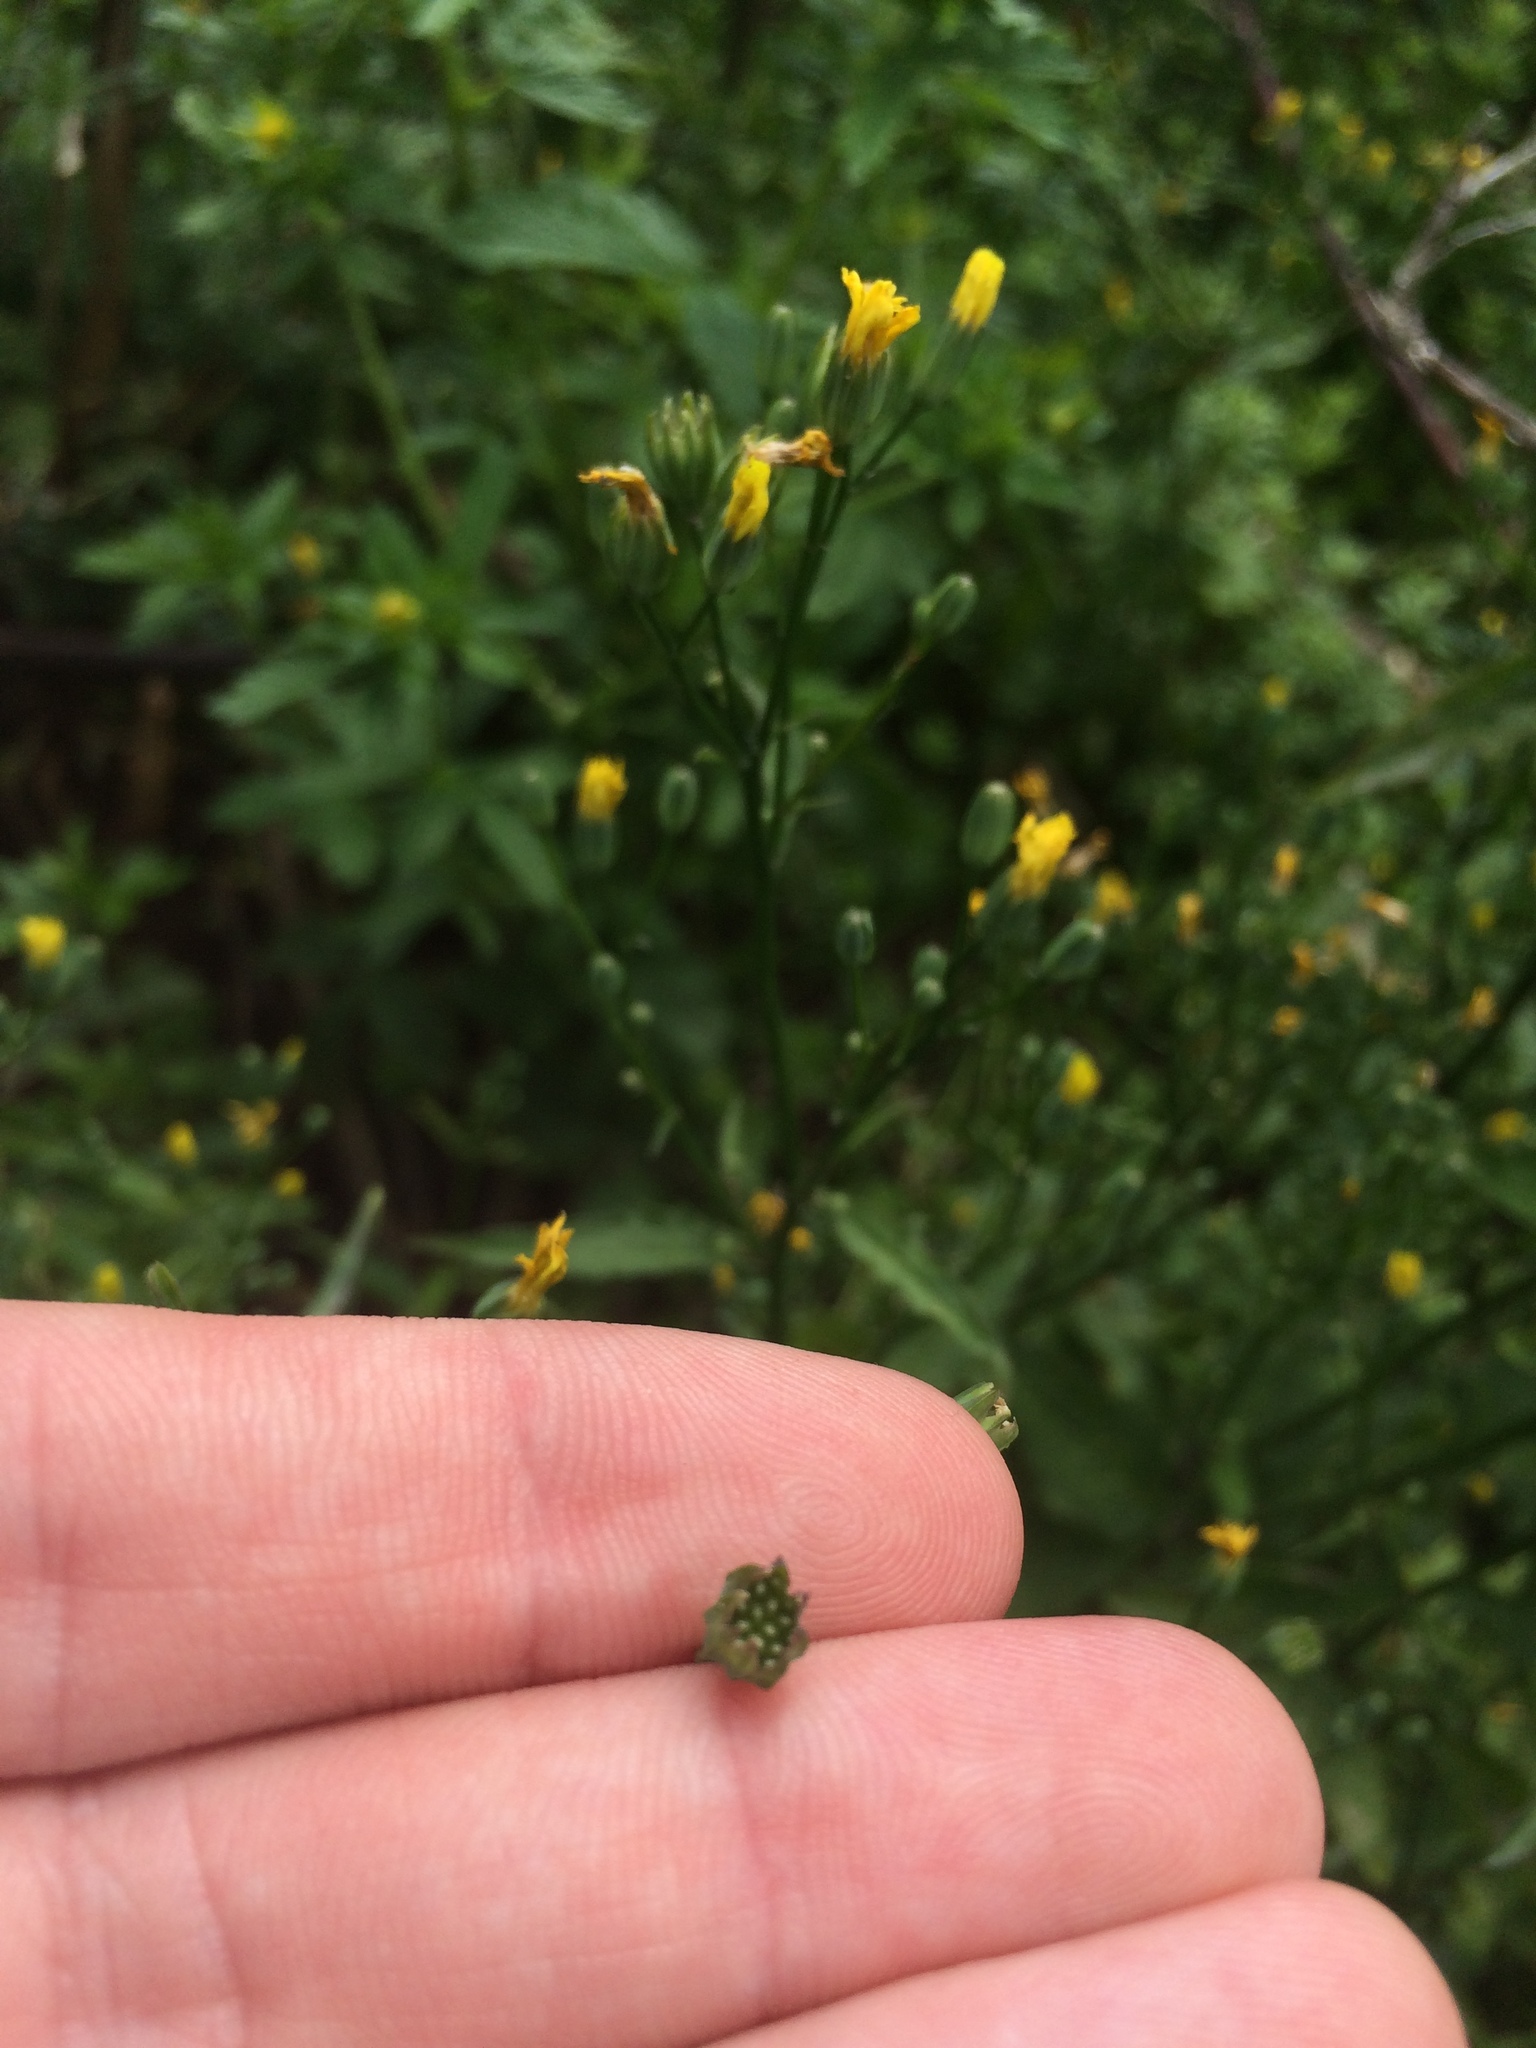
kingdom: Plantae
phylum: Tracheophyta
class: Magnoliopsida
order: Asterales
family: Asteraceae
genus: Lapsana
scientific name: Lapsana communis
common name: Nipplewort
